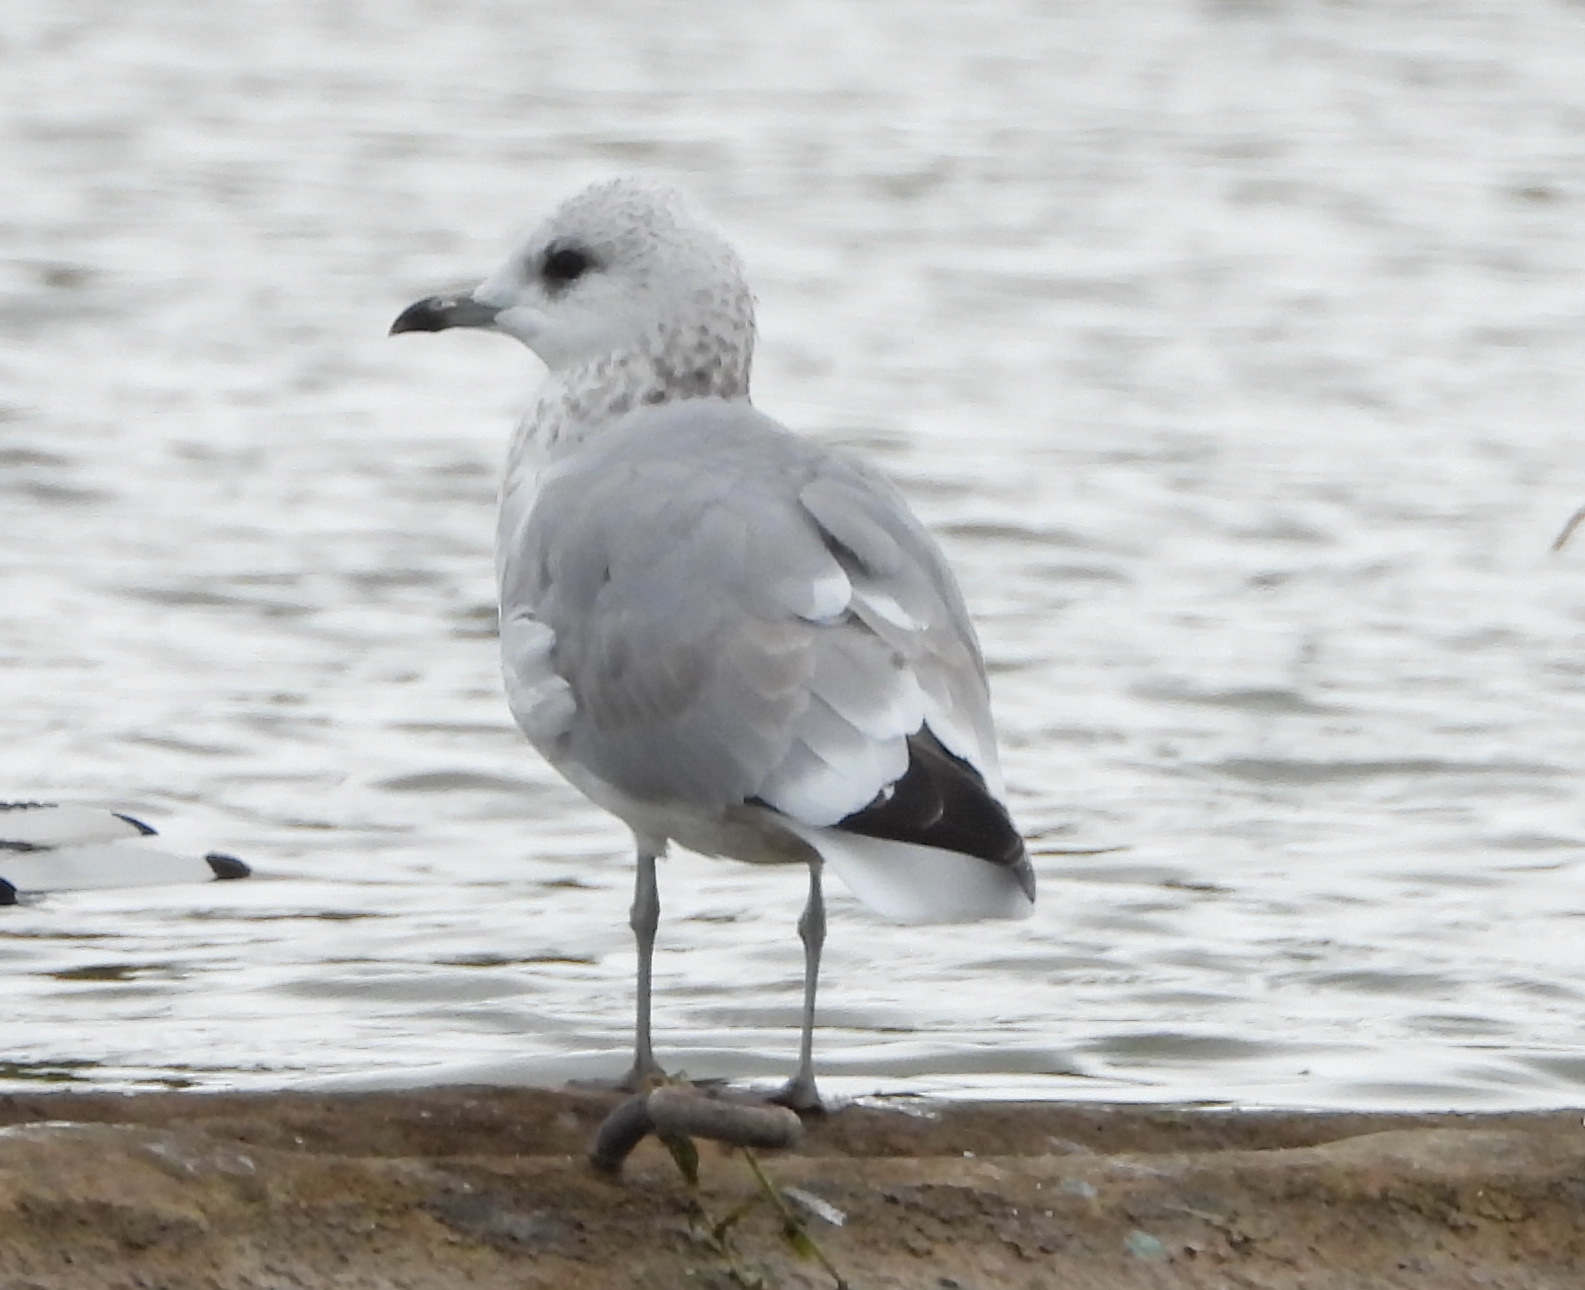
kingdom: Animalia
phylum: Chordata
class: Aves
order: Charadriiformes
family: Laridae
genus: Larus
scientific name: Larus canus
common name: Mew gull
